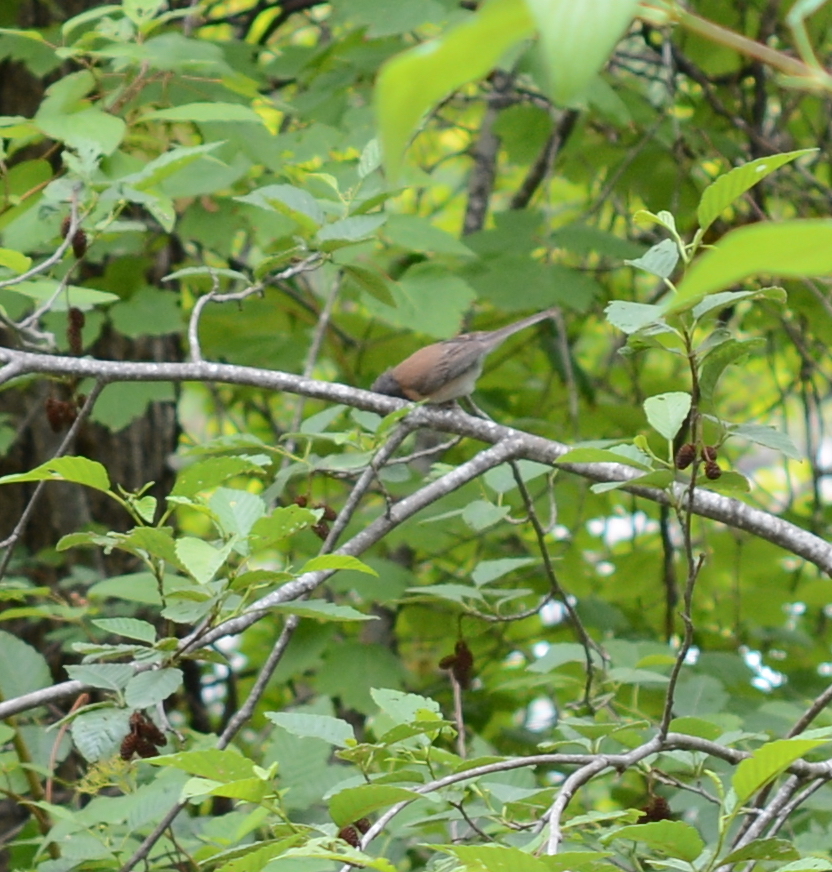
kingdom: Animalia
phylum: Chordata
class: Aves
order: Passeriformes
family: Passerellidae
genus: Junco
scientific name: Junco hyemalis
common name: Dark-eyed junco
